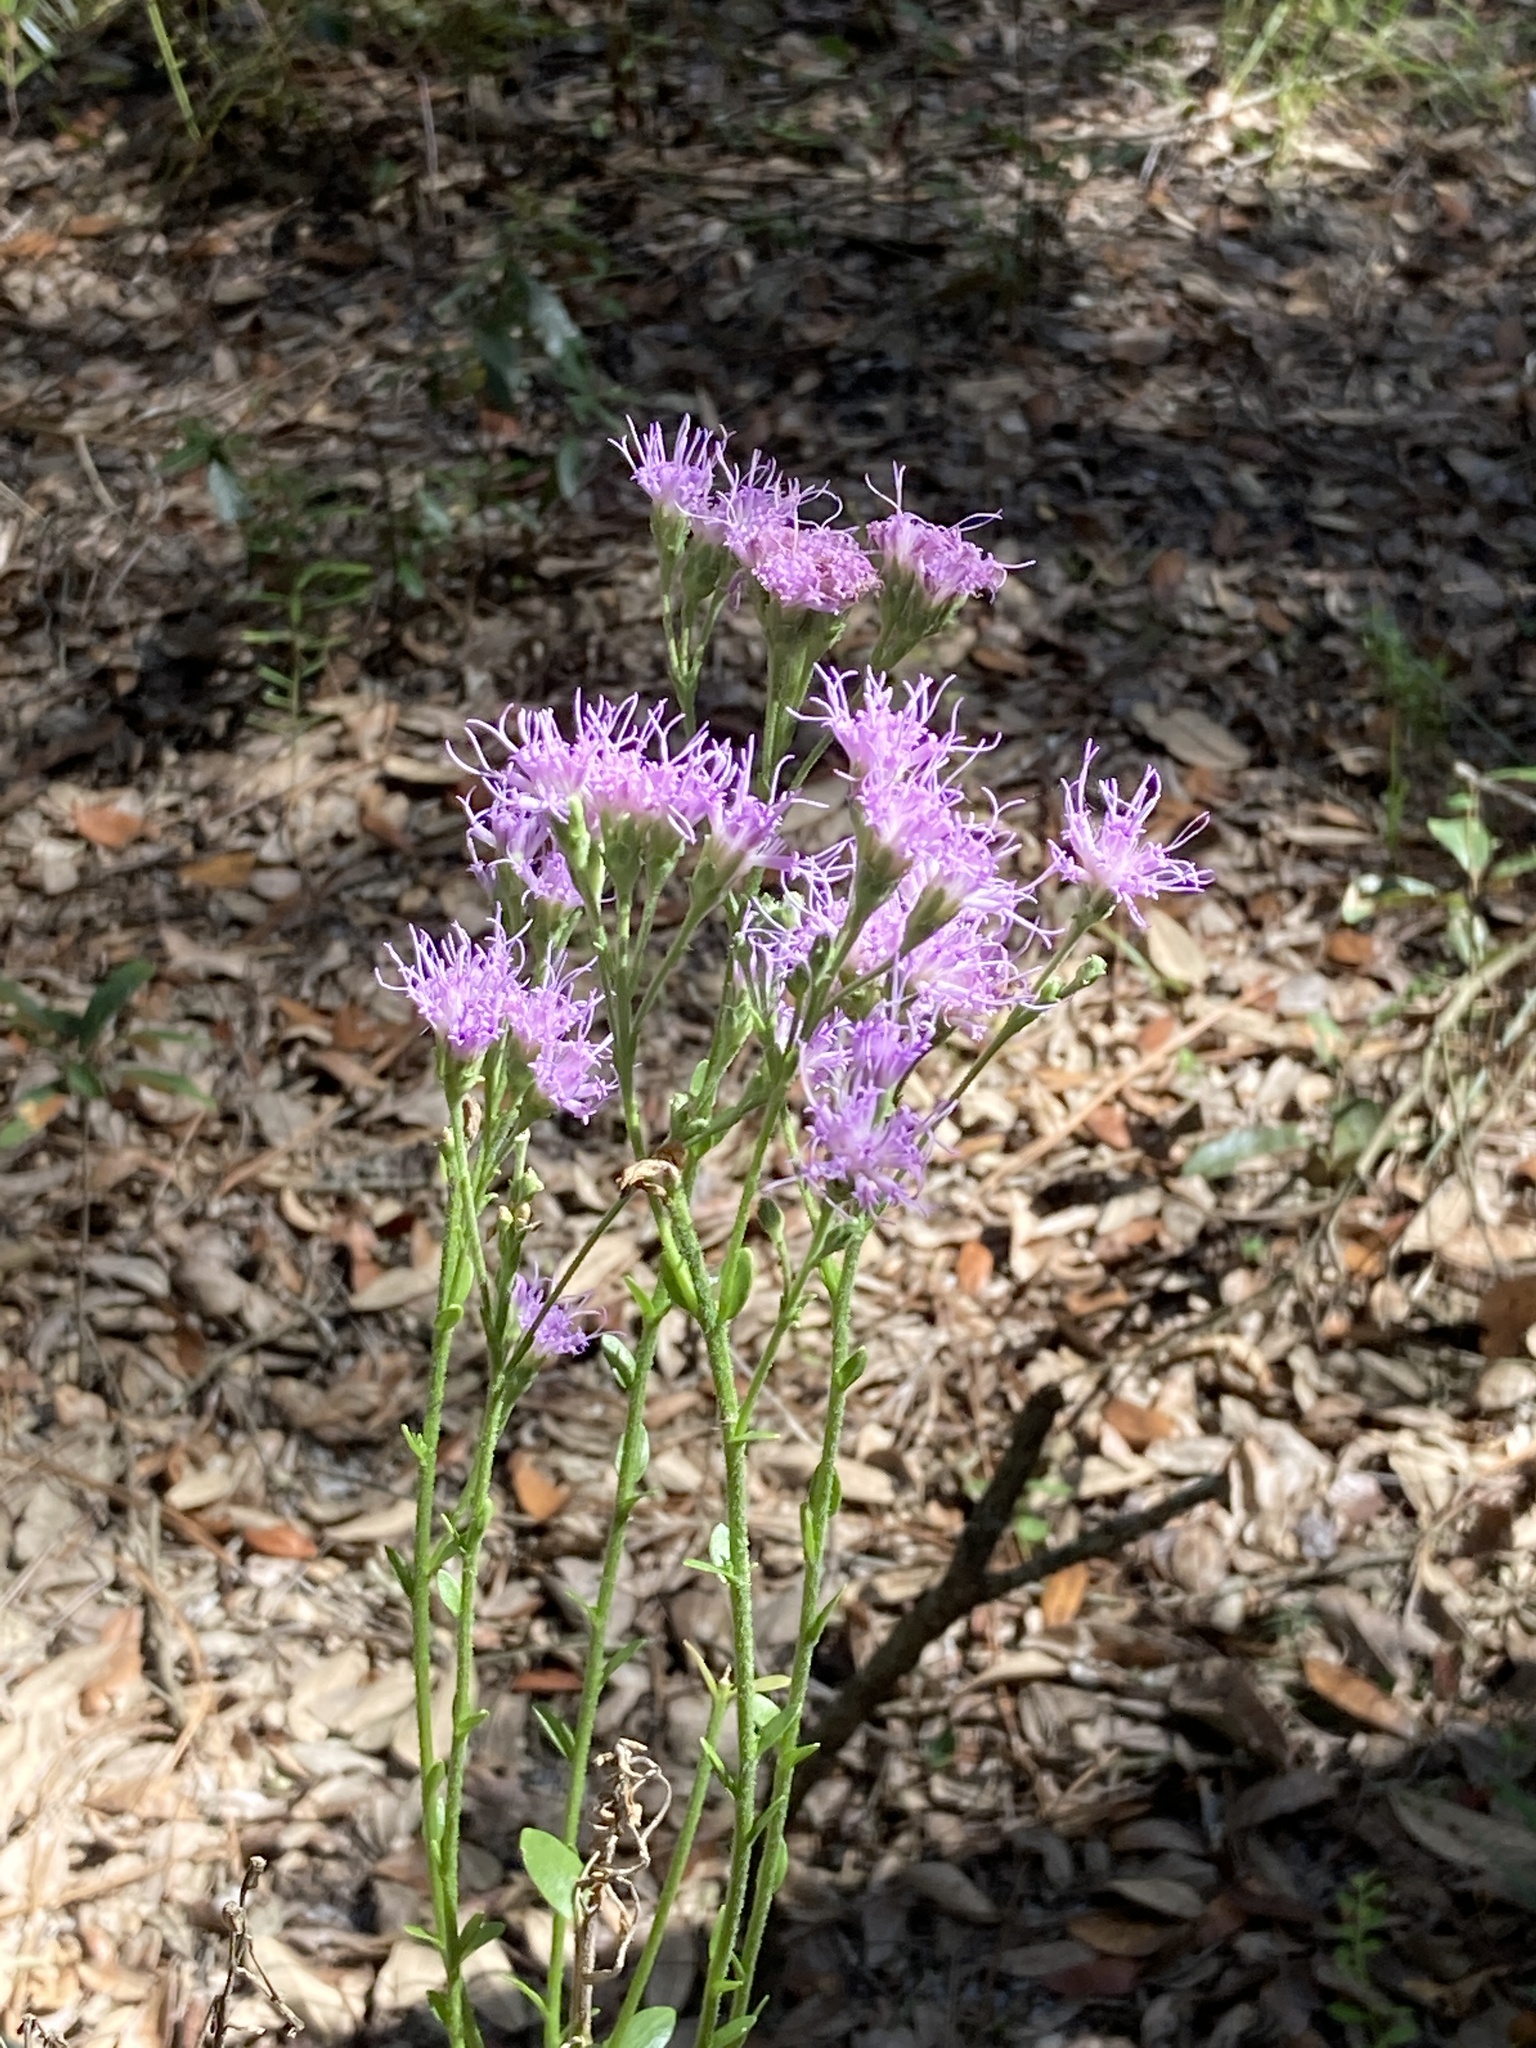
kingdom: Plantae
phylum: Tracheophyta
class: Magnoliopsida
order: Asterales
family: Asteraceae
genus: Carphephorus
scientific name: Carphephorus corymbosus
